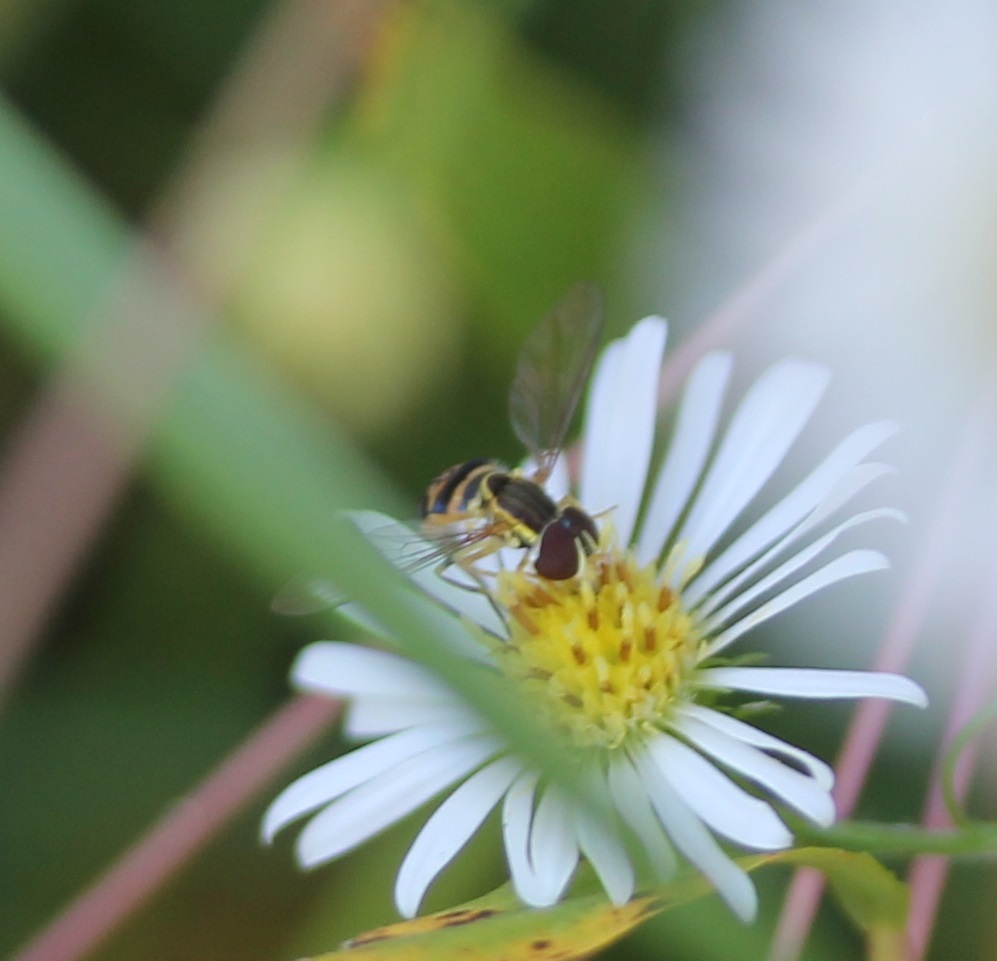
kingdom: Animalia
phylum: Arthropoda
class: Insecta
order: Diptera
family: Syrphidae
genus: Toxomerus
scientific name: Toxomerus geminatus
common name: Eastern calligrapher
